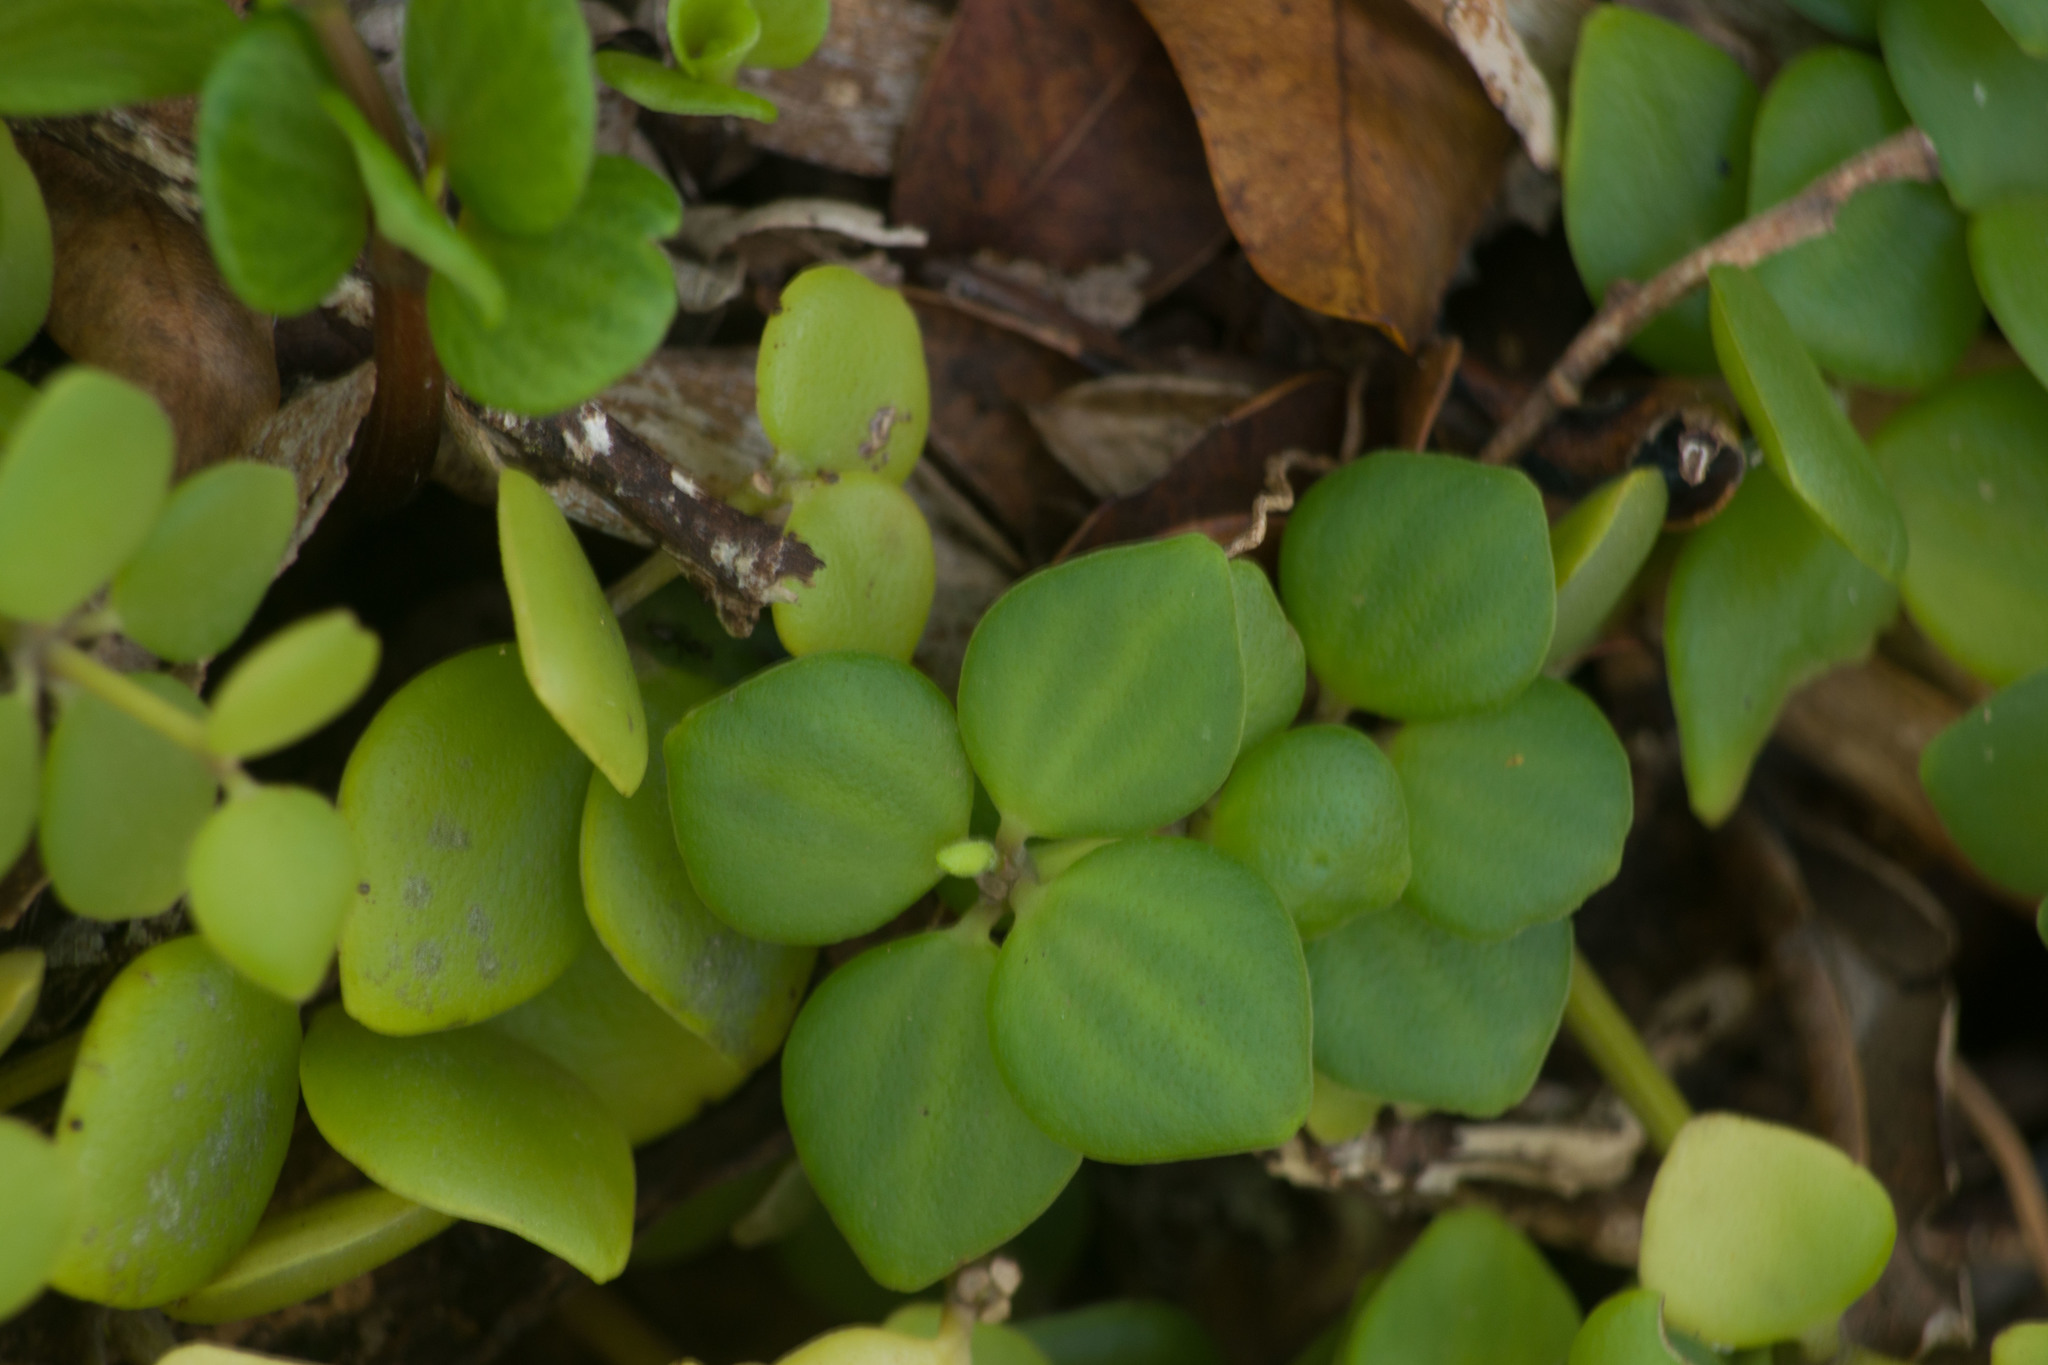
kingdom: Plantae
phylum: Tracheophyta
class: Magnoliopsida
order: Piperales
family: Piperaceae
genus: Peperomia
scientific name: Peperomia tetraphylla
